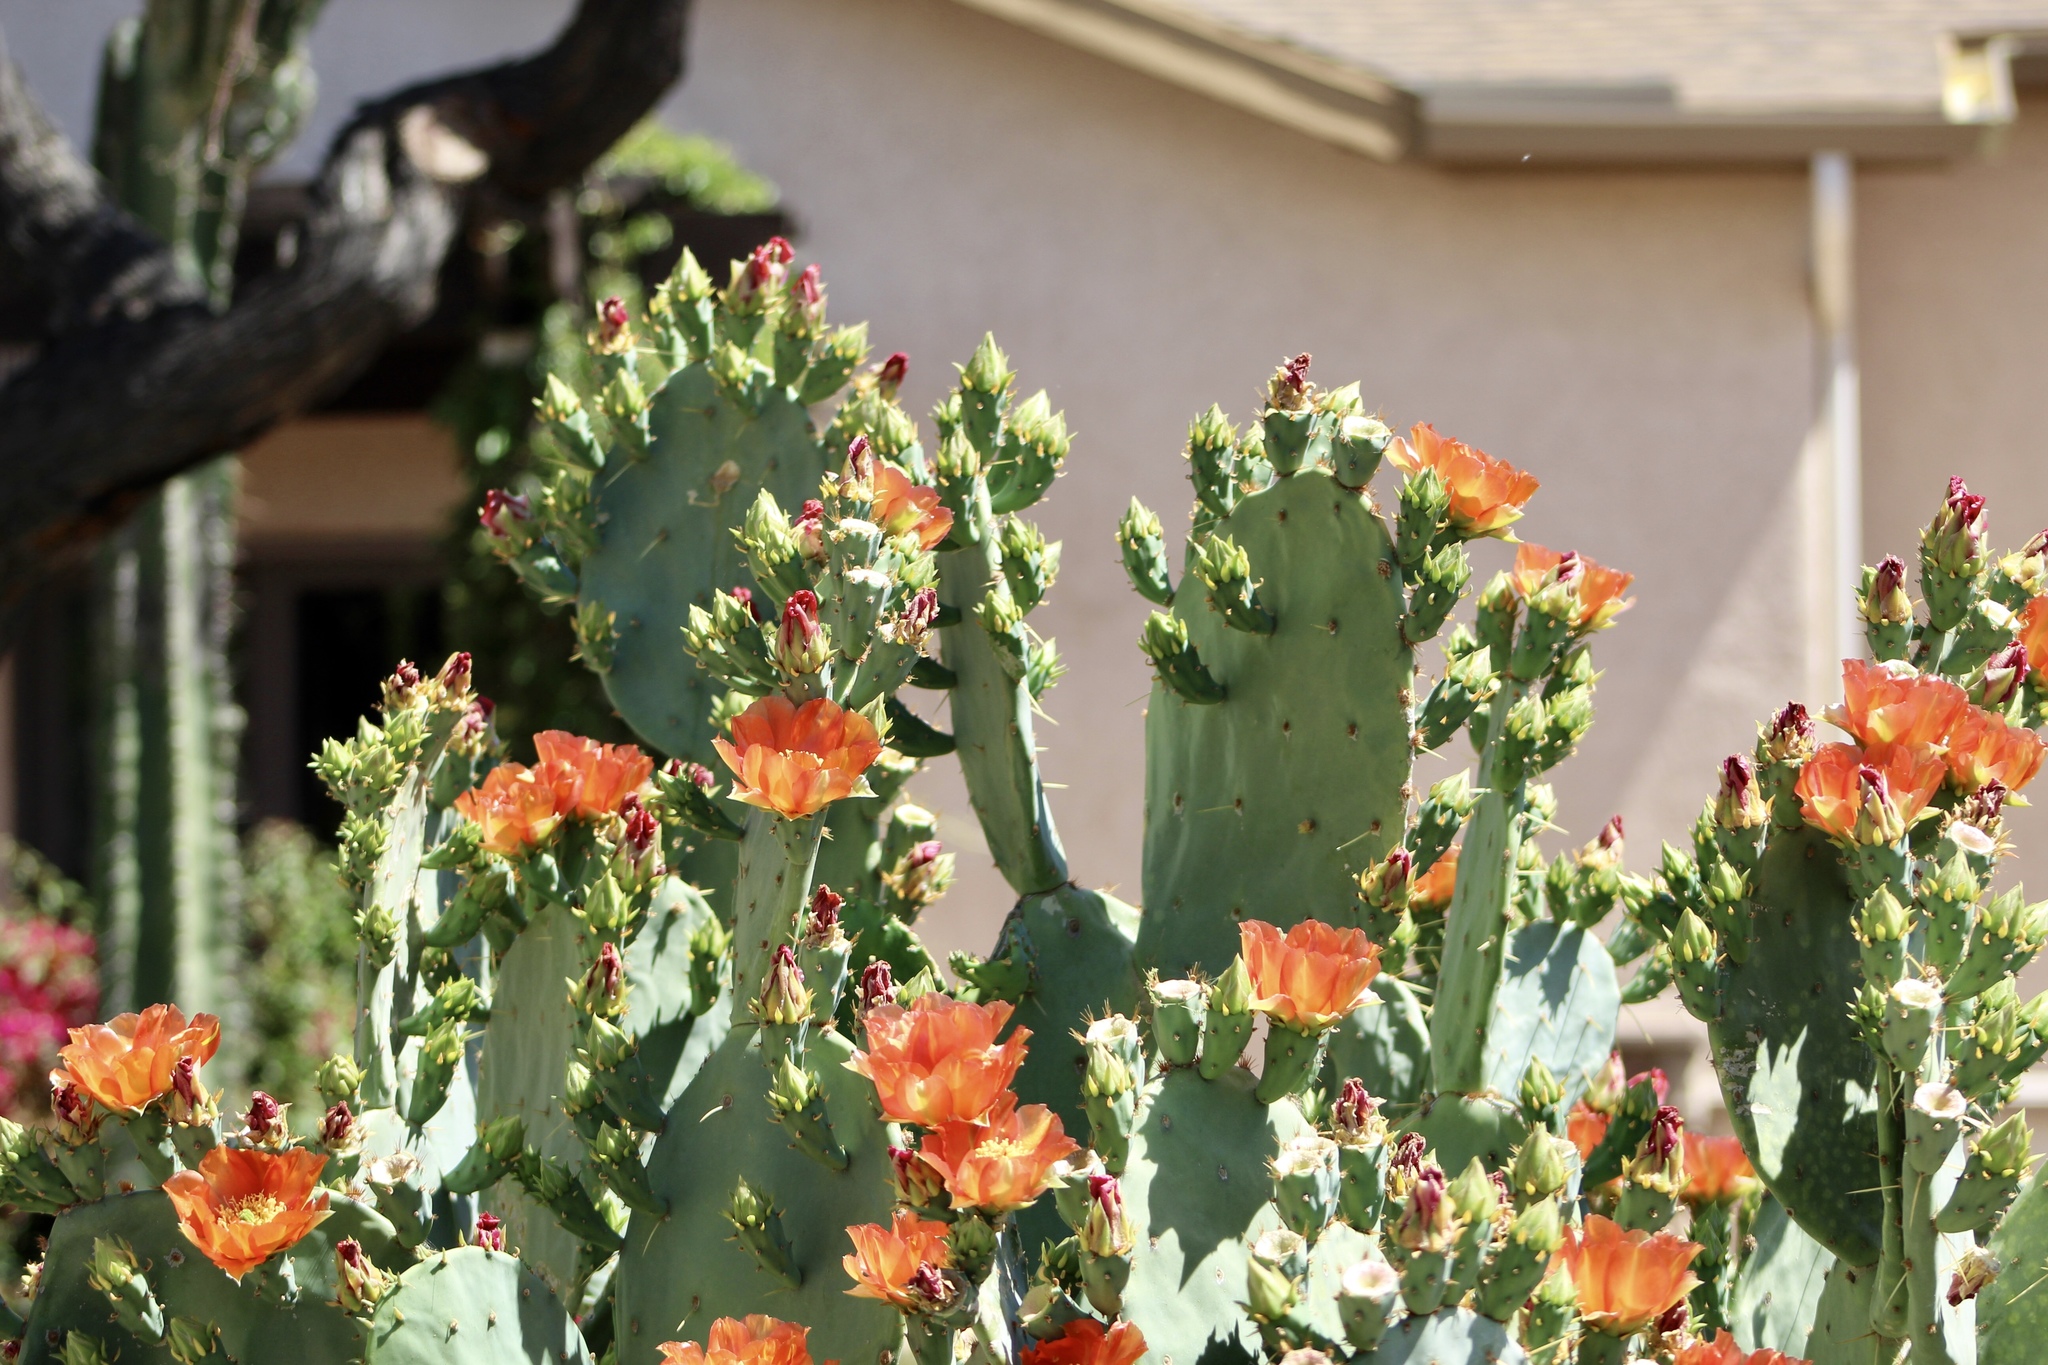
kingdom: Plantae
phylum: Tracheophyta
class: Magnoliopsida
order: Caryophyllales
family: Cactaceae
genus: Opuntia
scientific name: Opuntia engelmannii
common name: Cactus-apple
